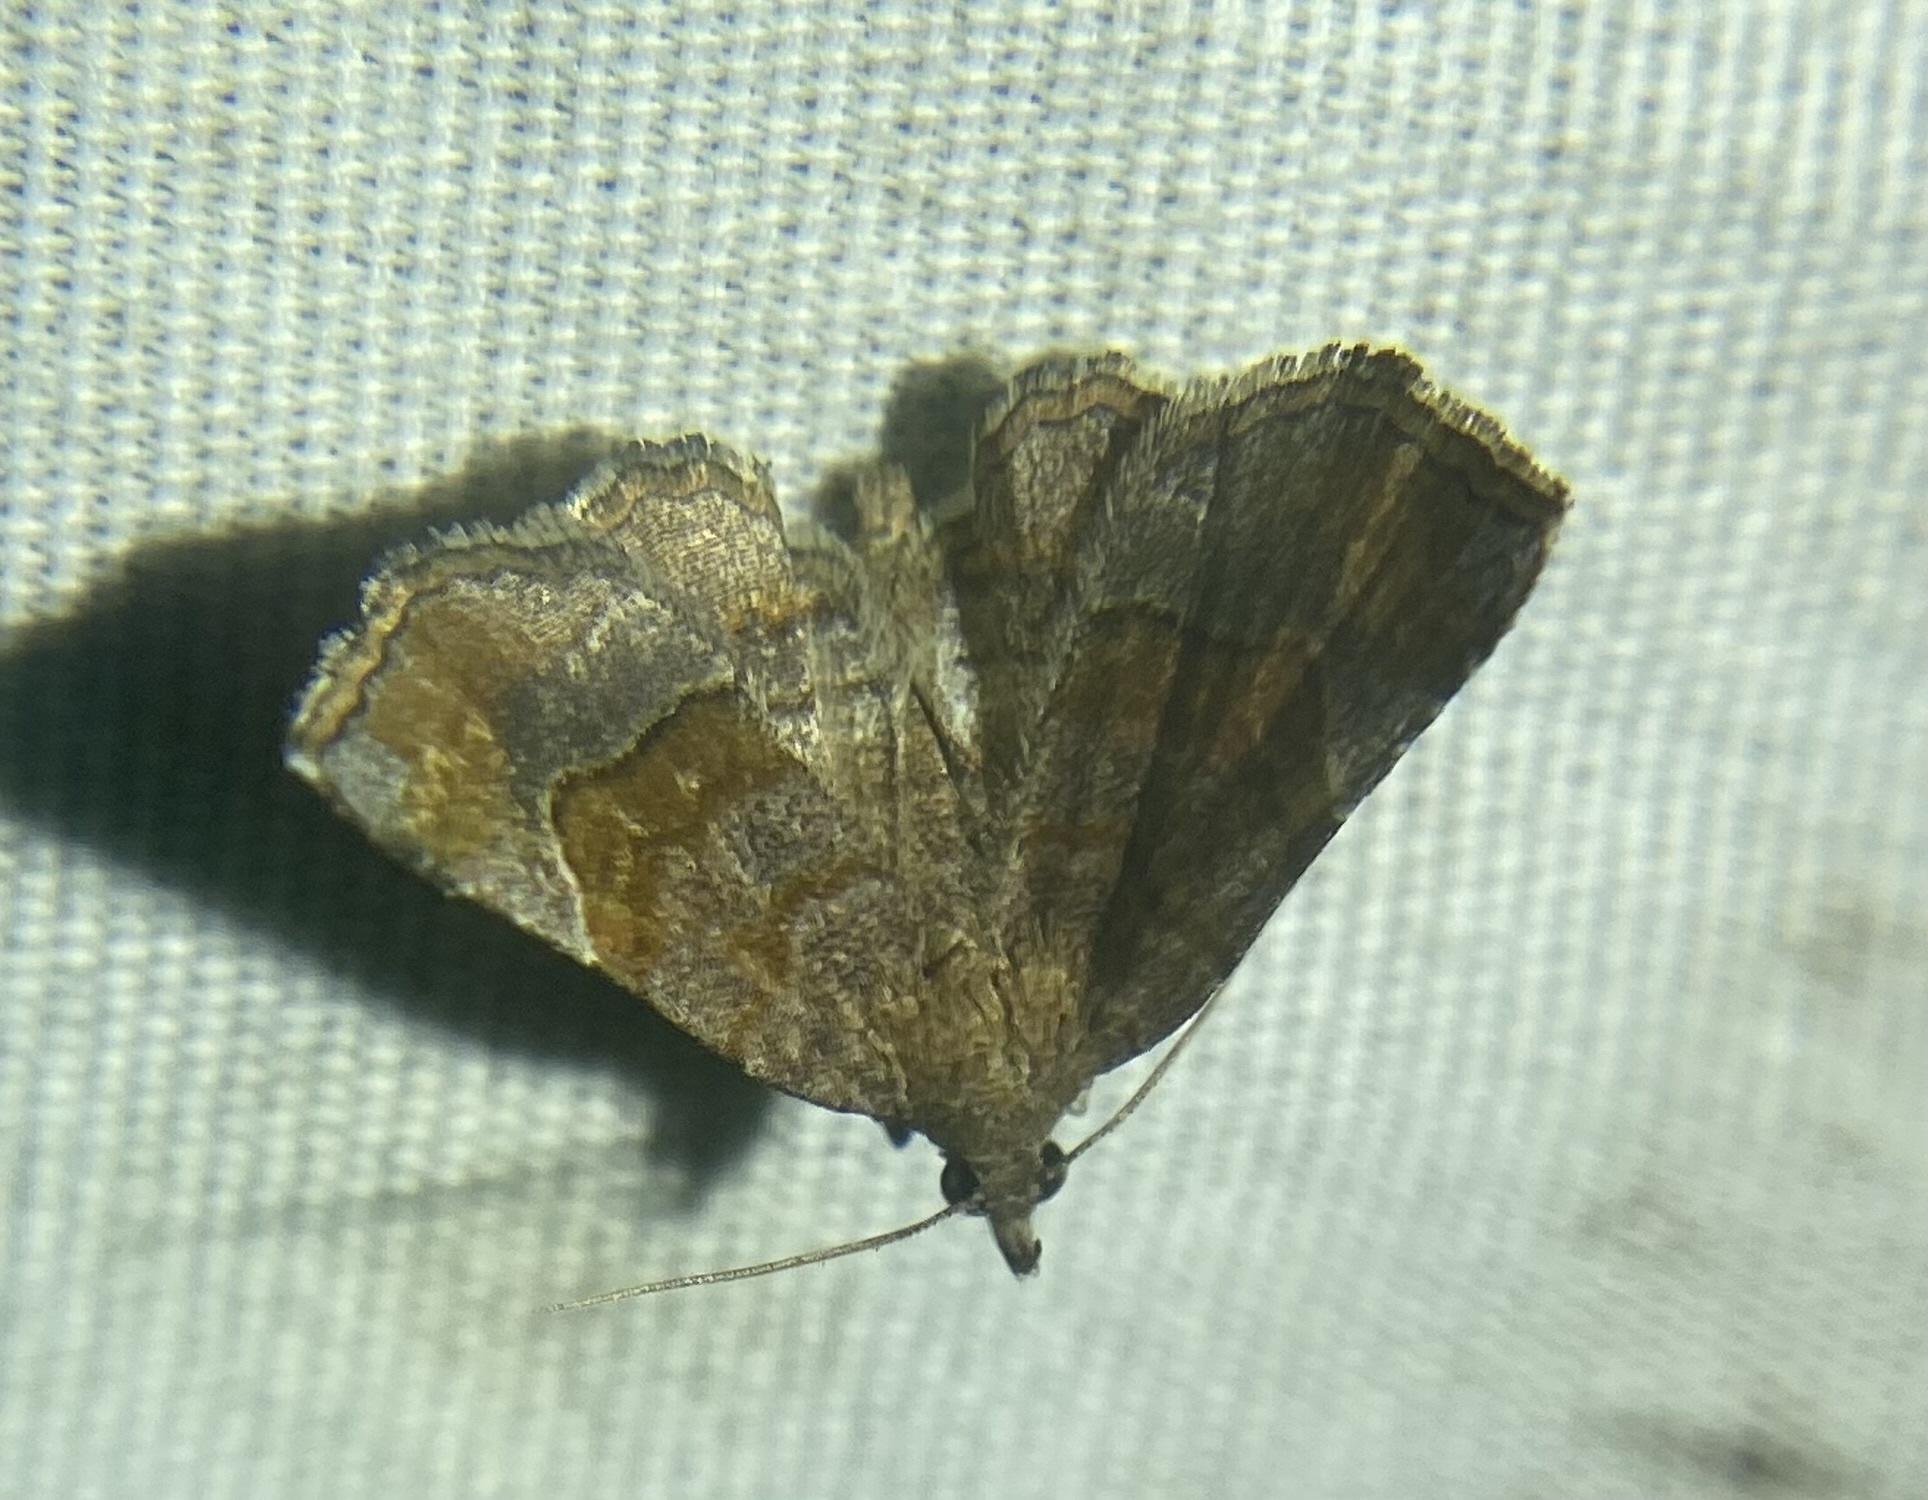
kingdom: Animalia
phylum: Arthropoda
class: Insecta
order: Lepidoptera
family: Erebidae
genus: Pangrapta
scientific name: Pangrapta decoralis
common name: Decorated owlet
